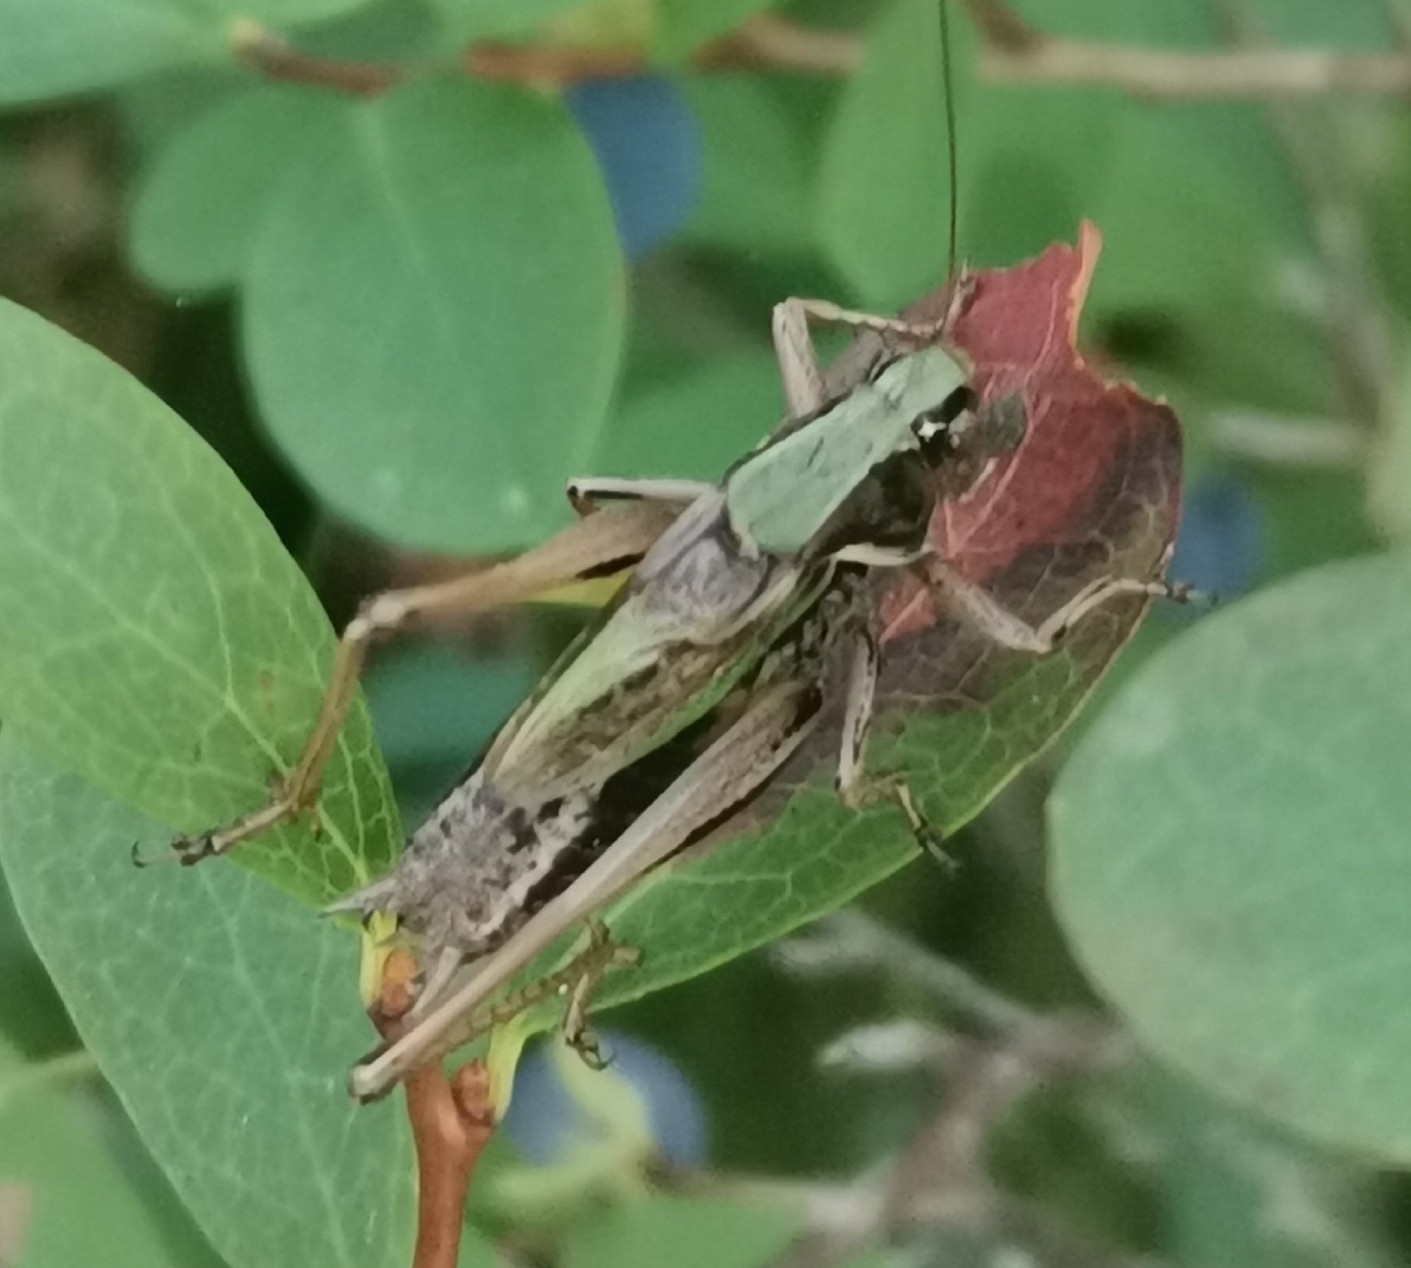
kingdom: Animalia
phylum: Arthropoda
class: Insecta
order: Orthoptera
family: Tettigoniidae
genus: Metrioptera
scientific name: Metrioptera brachyptera
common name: Bog bush-cricket
